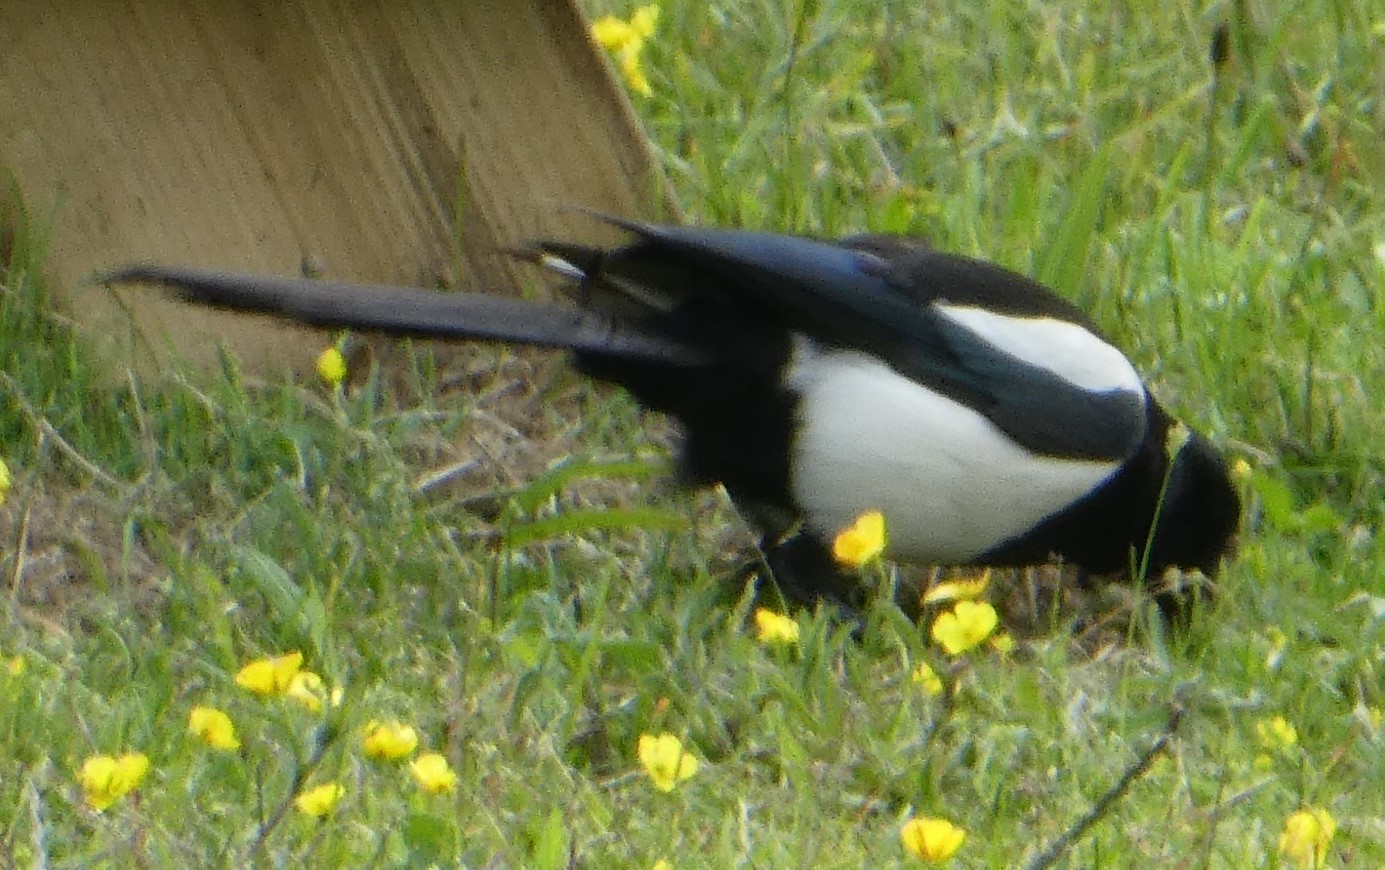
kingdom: Animalia
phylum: Chordata
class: Aves
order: Passeriformes
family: Corvidae
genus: Pica
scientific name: Pica pica
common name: Eurasian magpie
